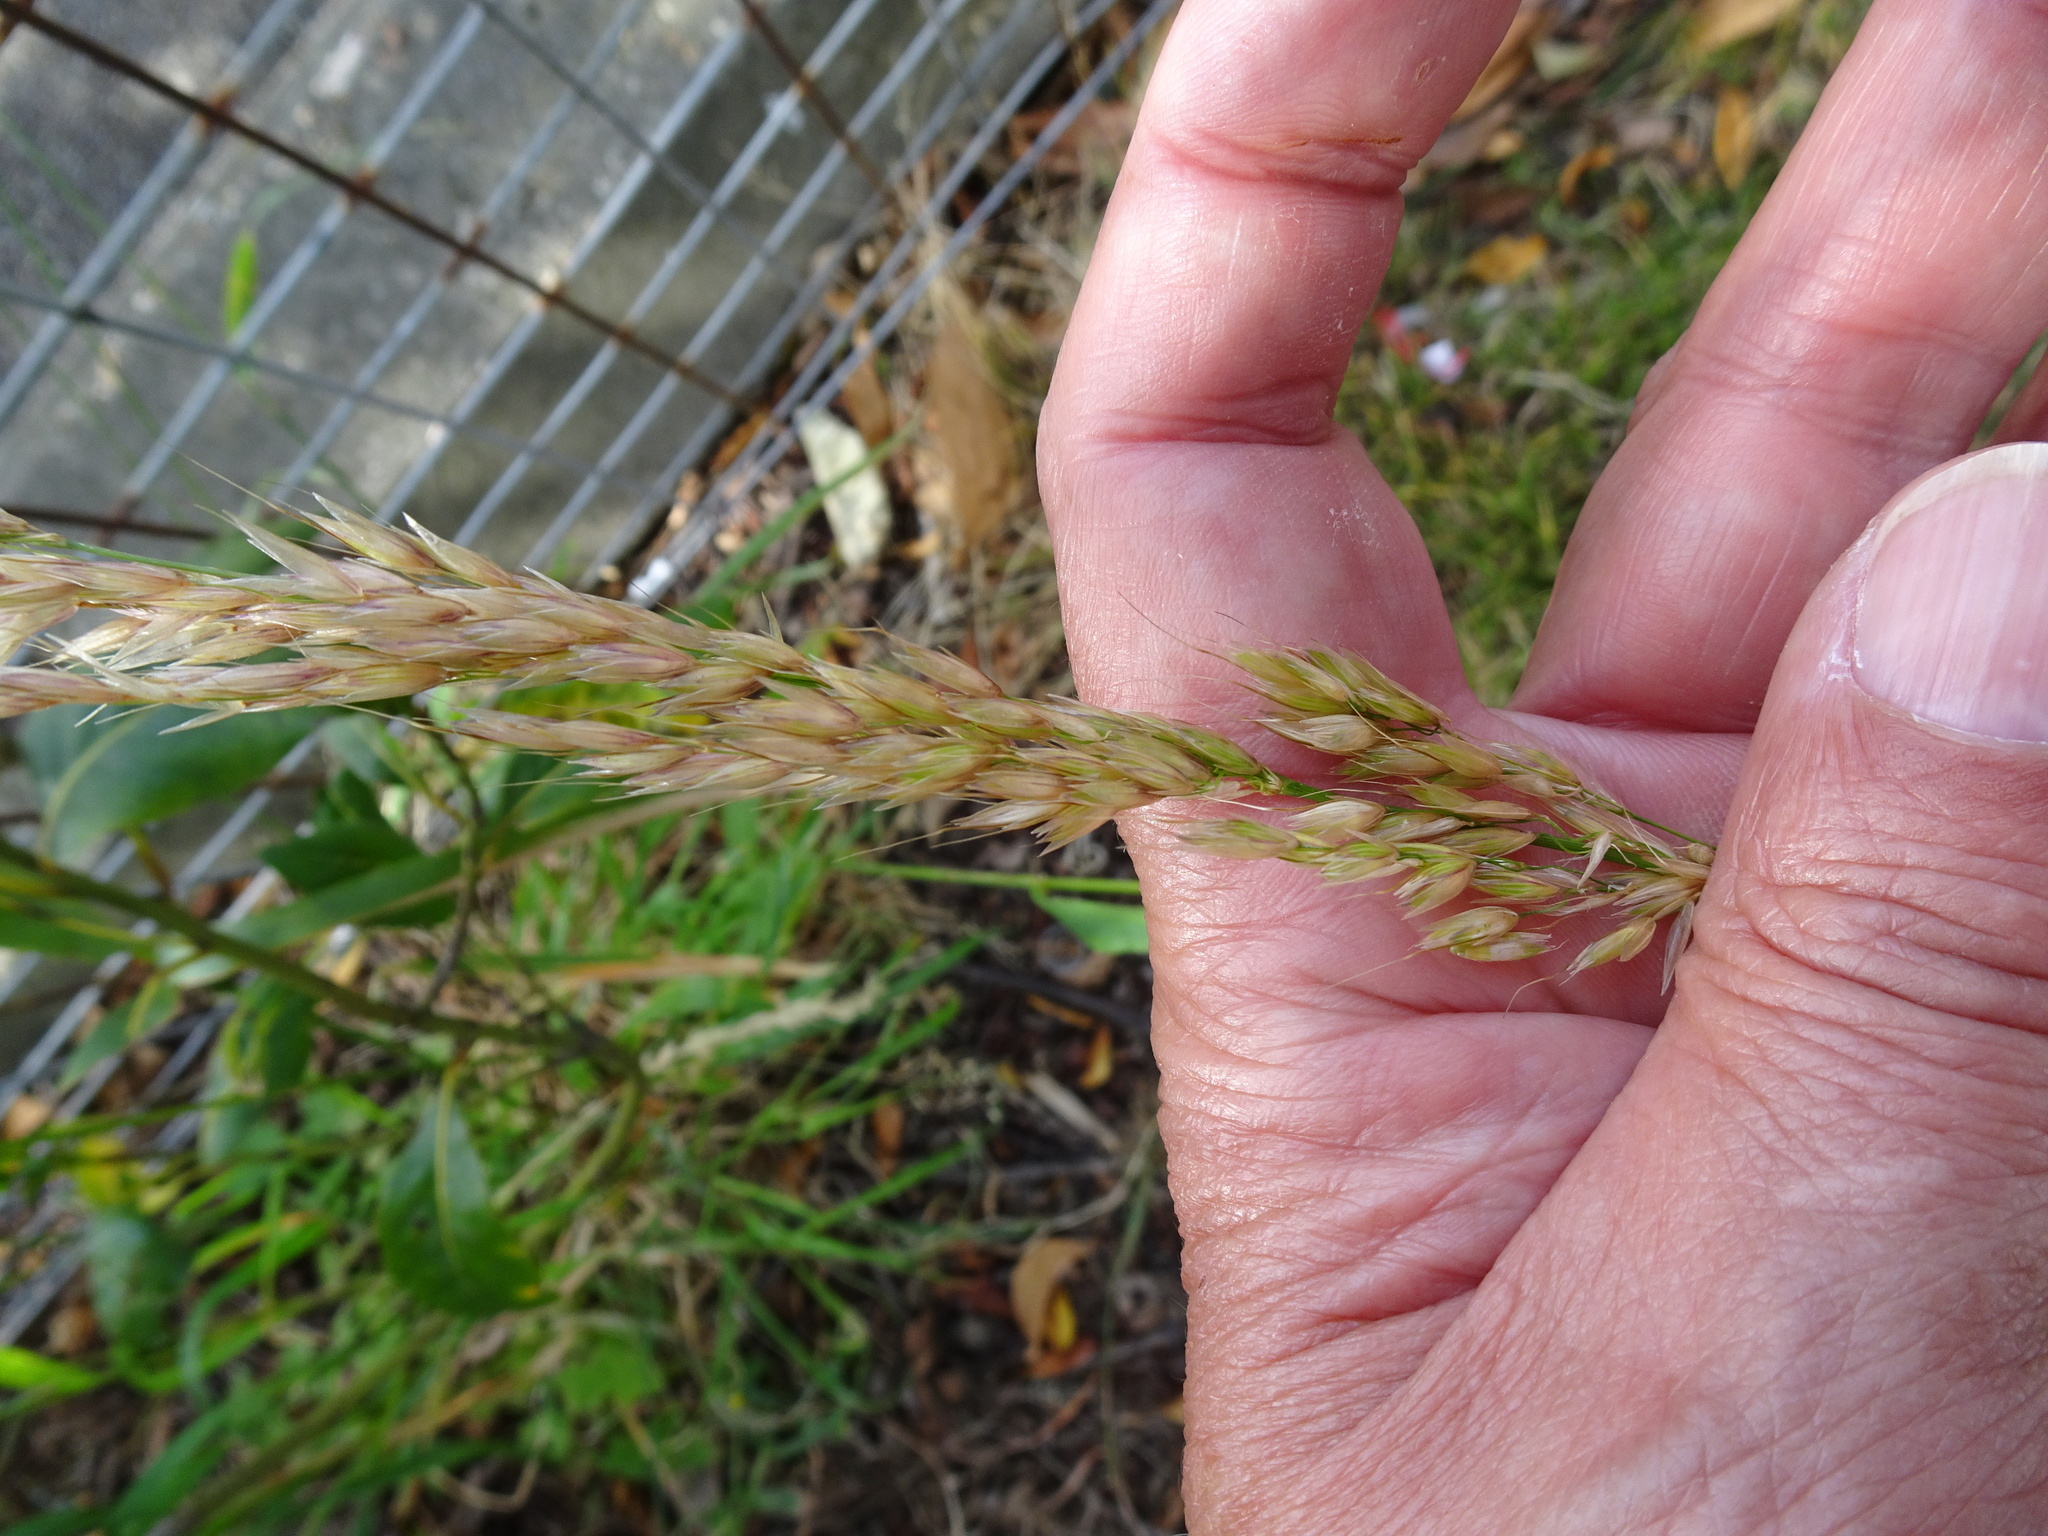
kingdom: Plantae
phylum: Tracheophyta
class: Liliopsida
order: Poales
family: Poaceae
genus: Arrhenatherum
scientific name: Arrhenatherum elatius
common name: Tall oatgrass
